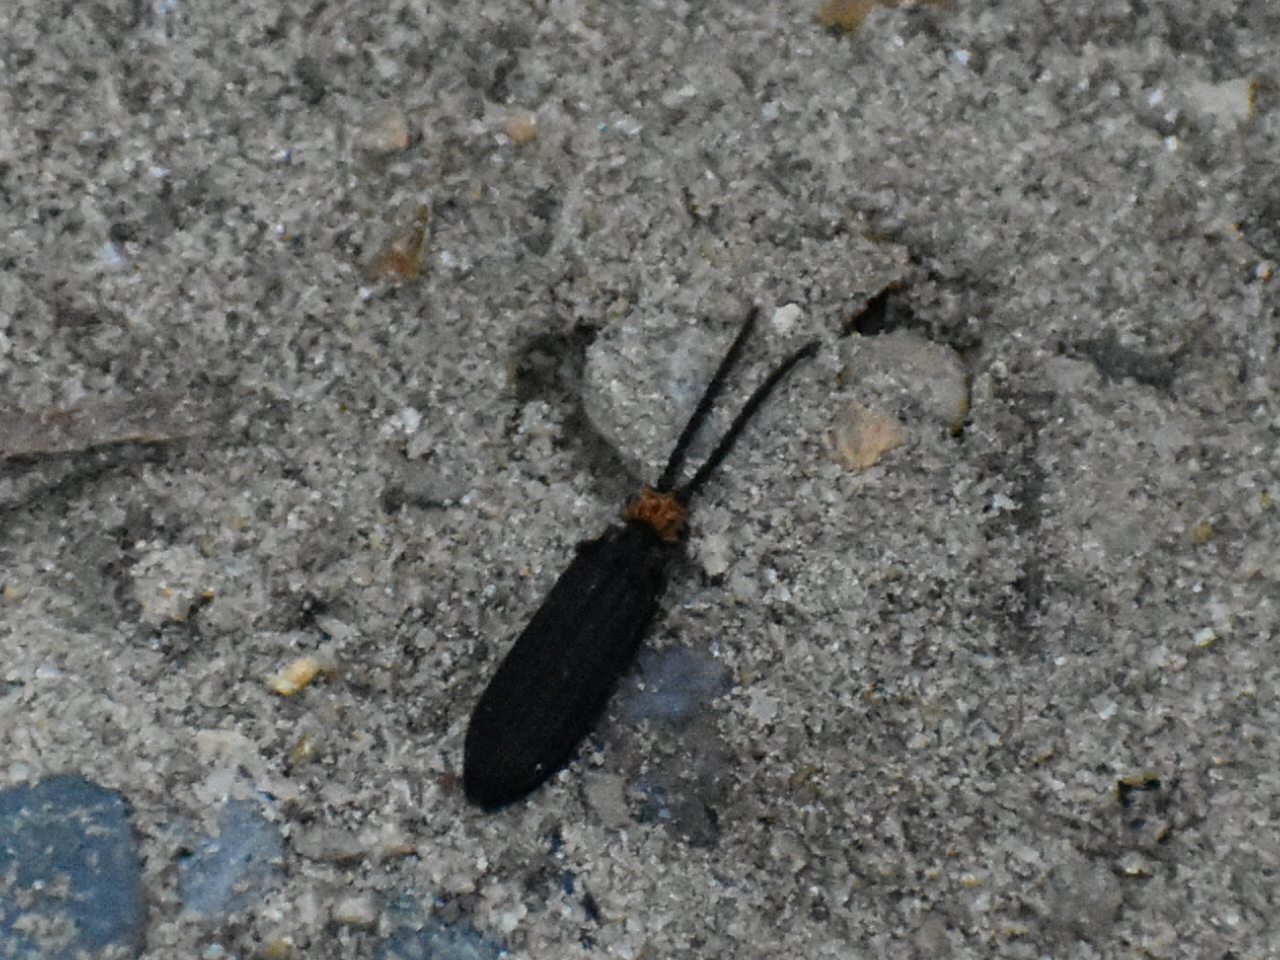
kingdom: Animalia
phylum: Arthropoda
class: Insecta
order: Coleoptera
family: Cupedidae
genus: Cupes
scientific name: Cupes capitata
